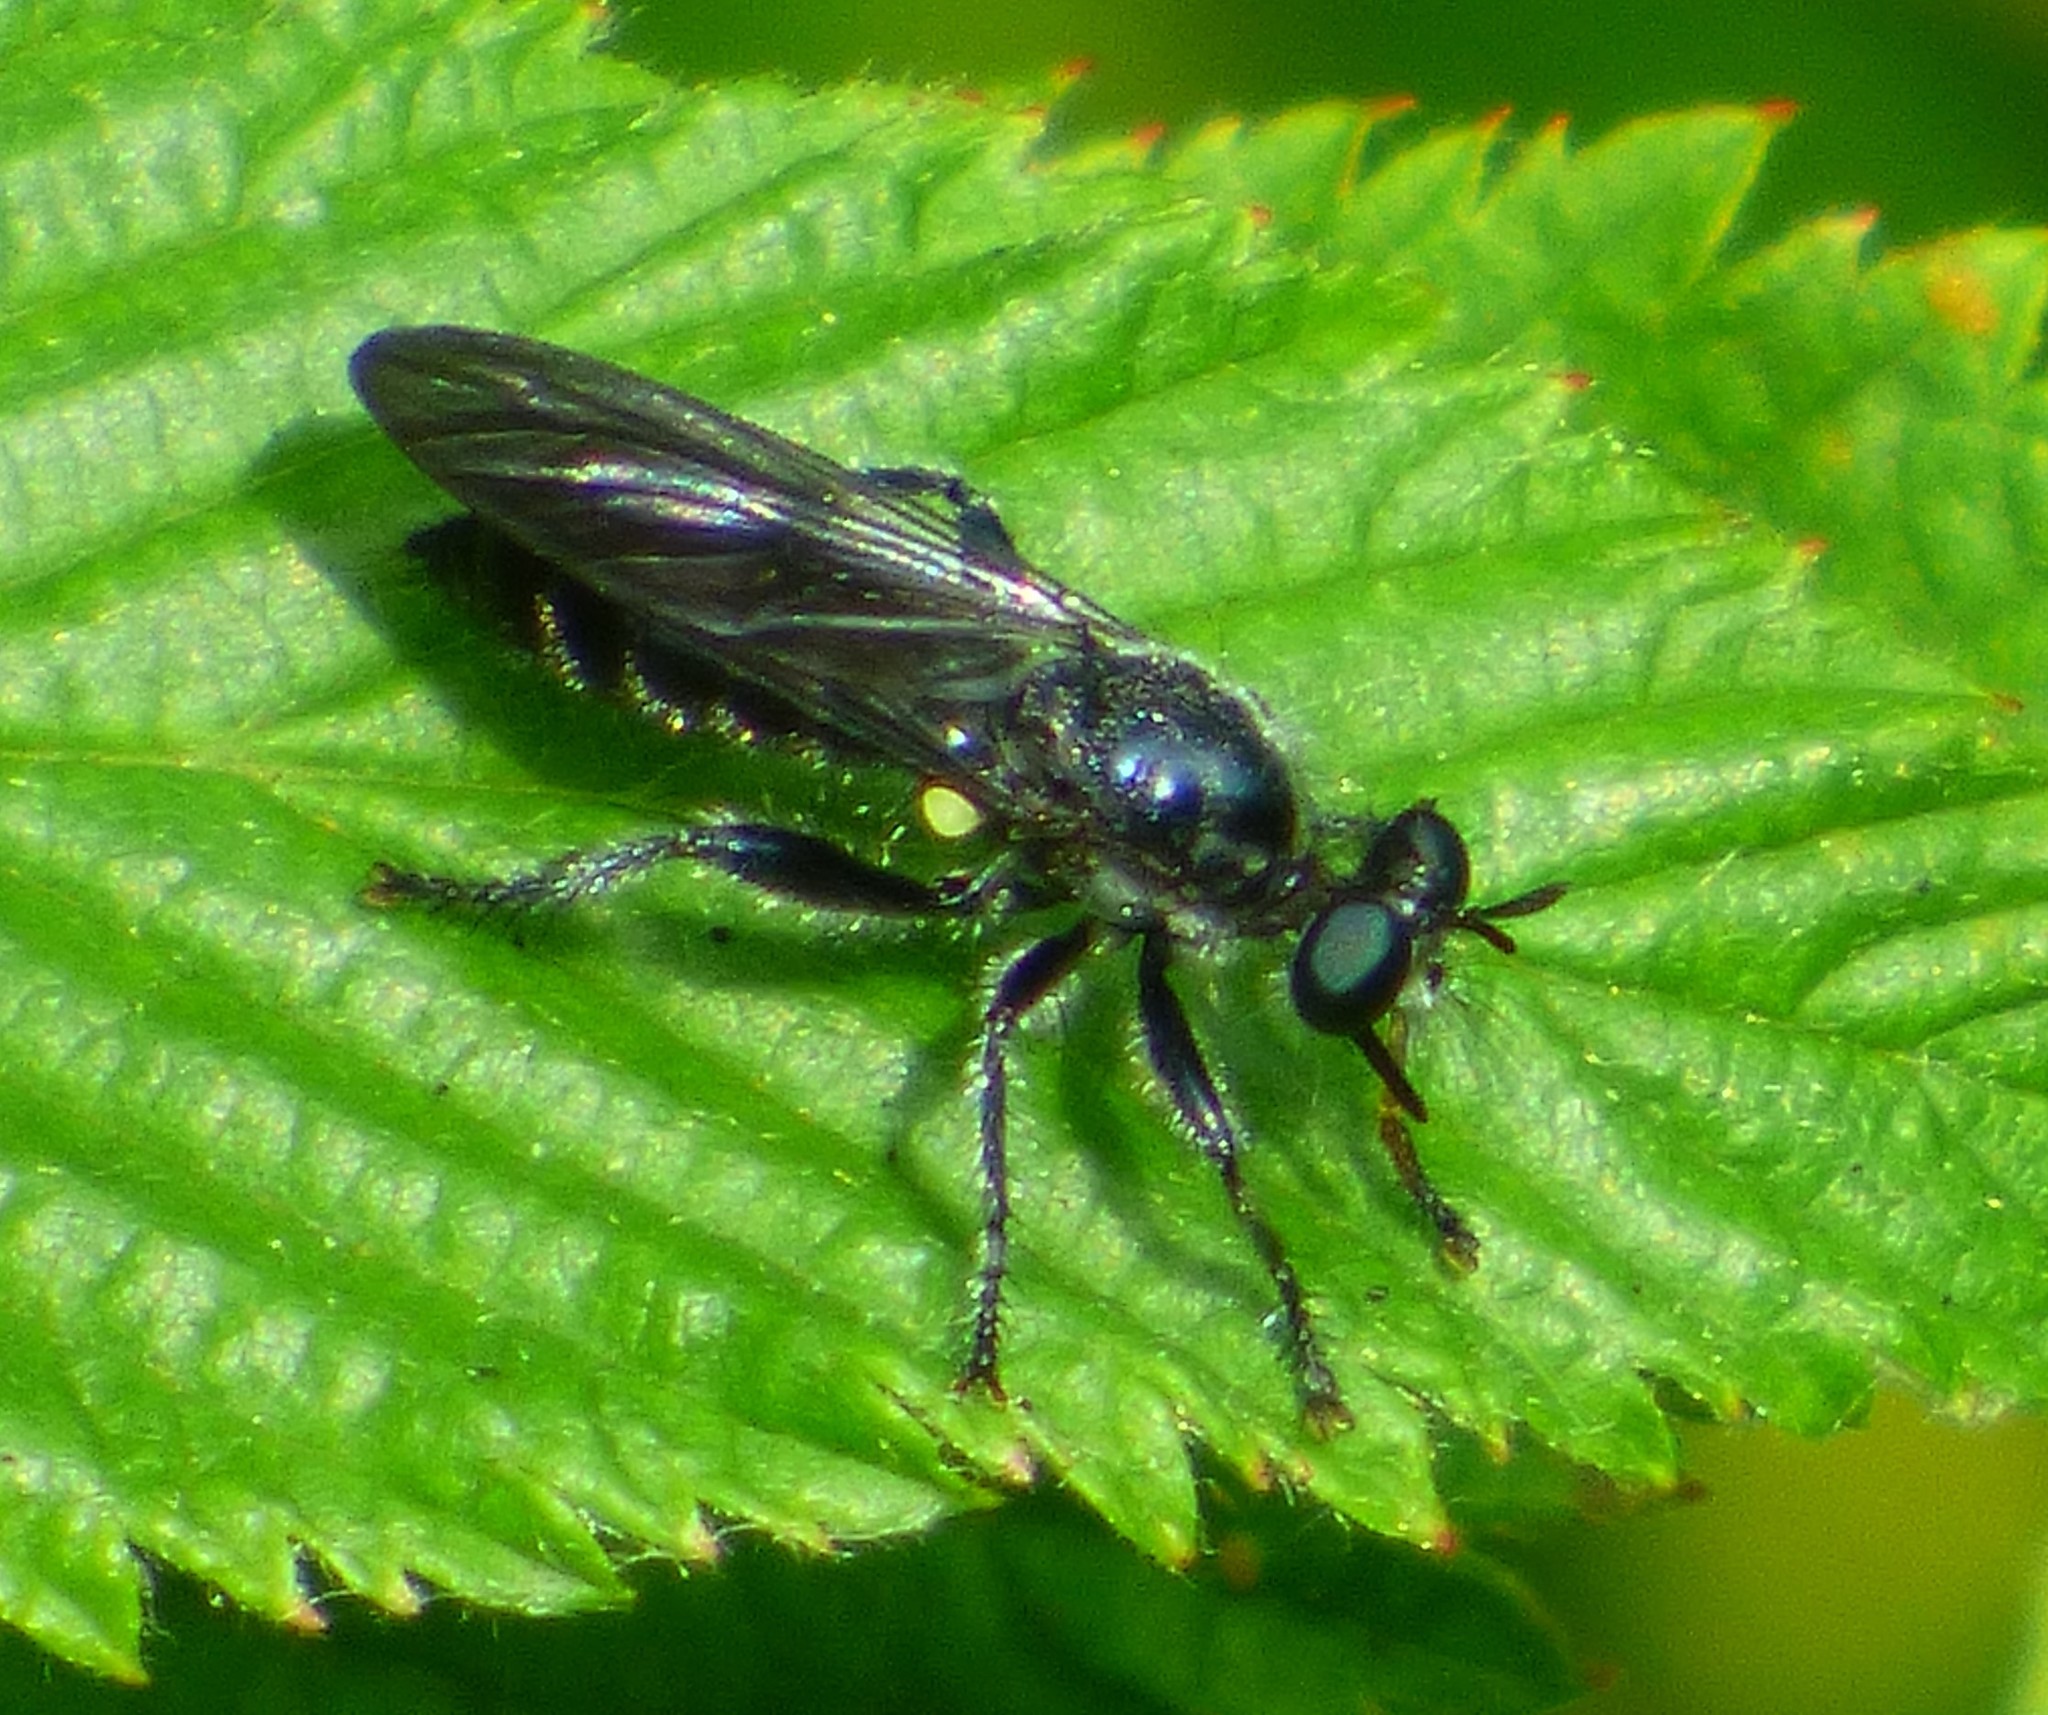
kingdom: Animalia
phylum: Arthropoda
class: Insecta
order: Diptera
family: Asilidae
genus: Laphria
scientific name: Laphria
